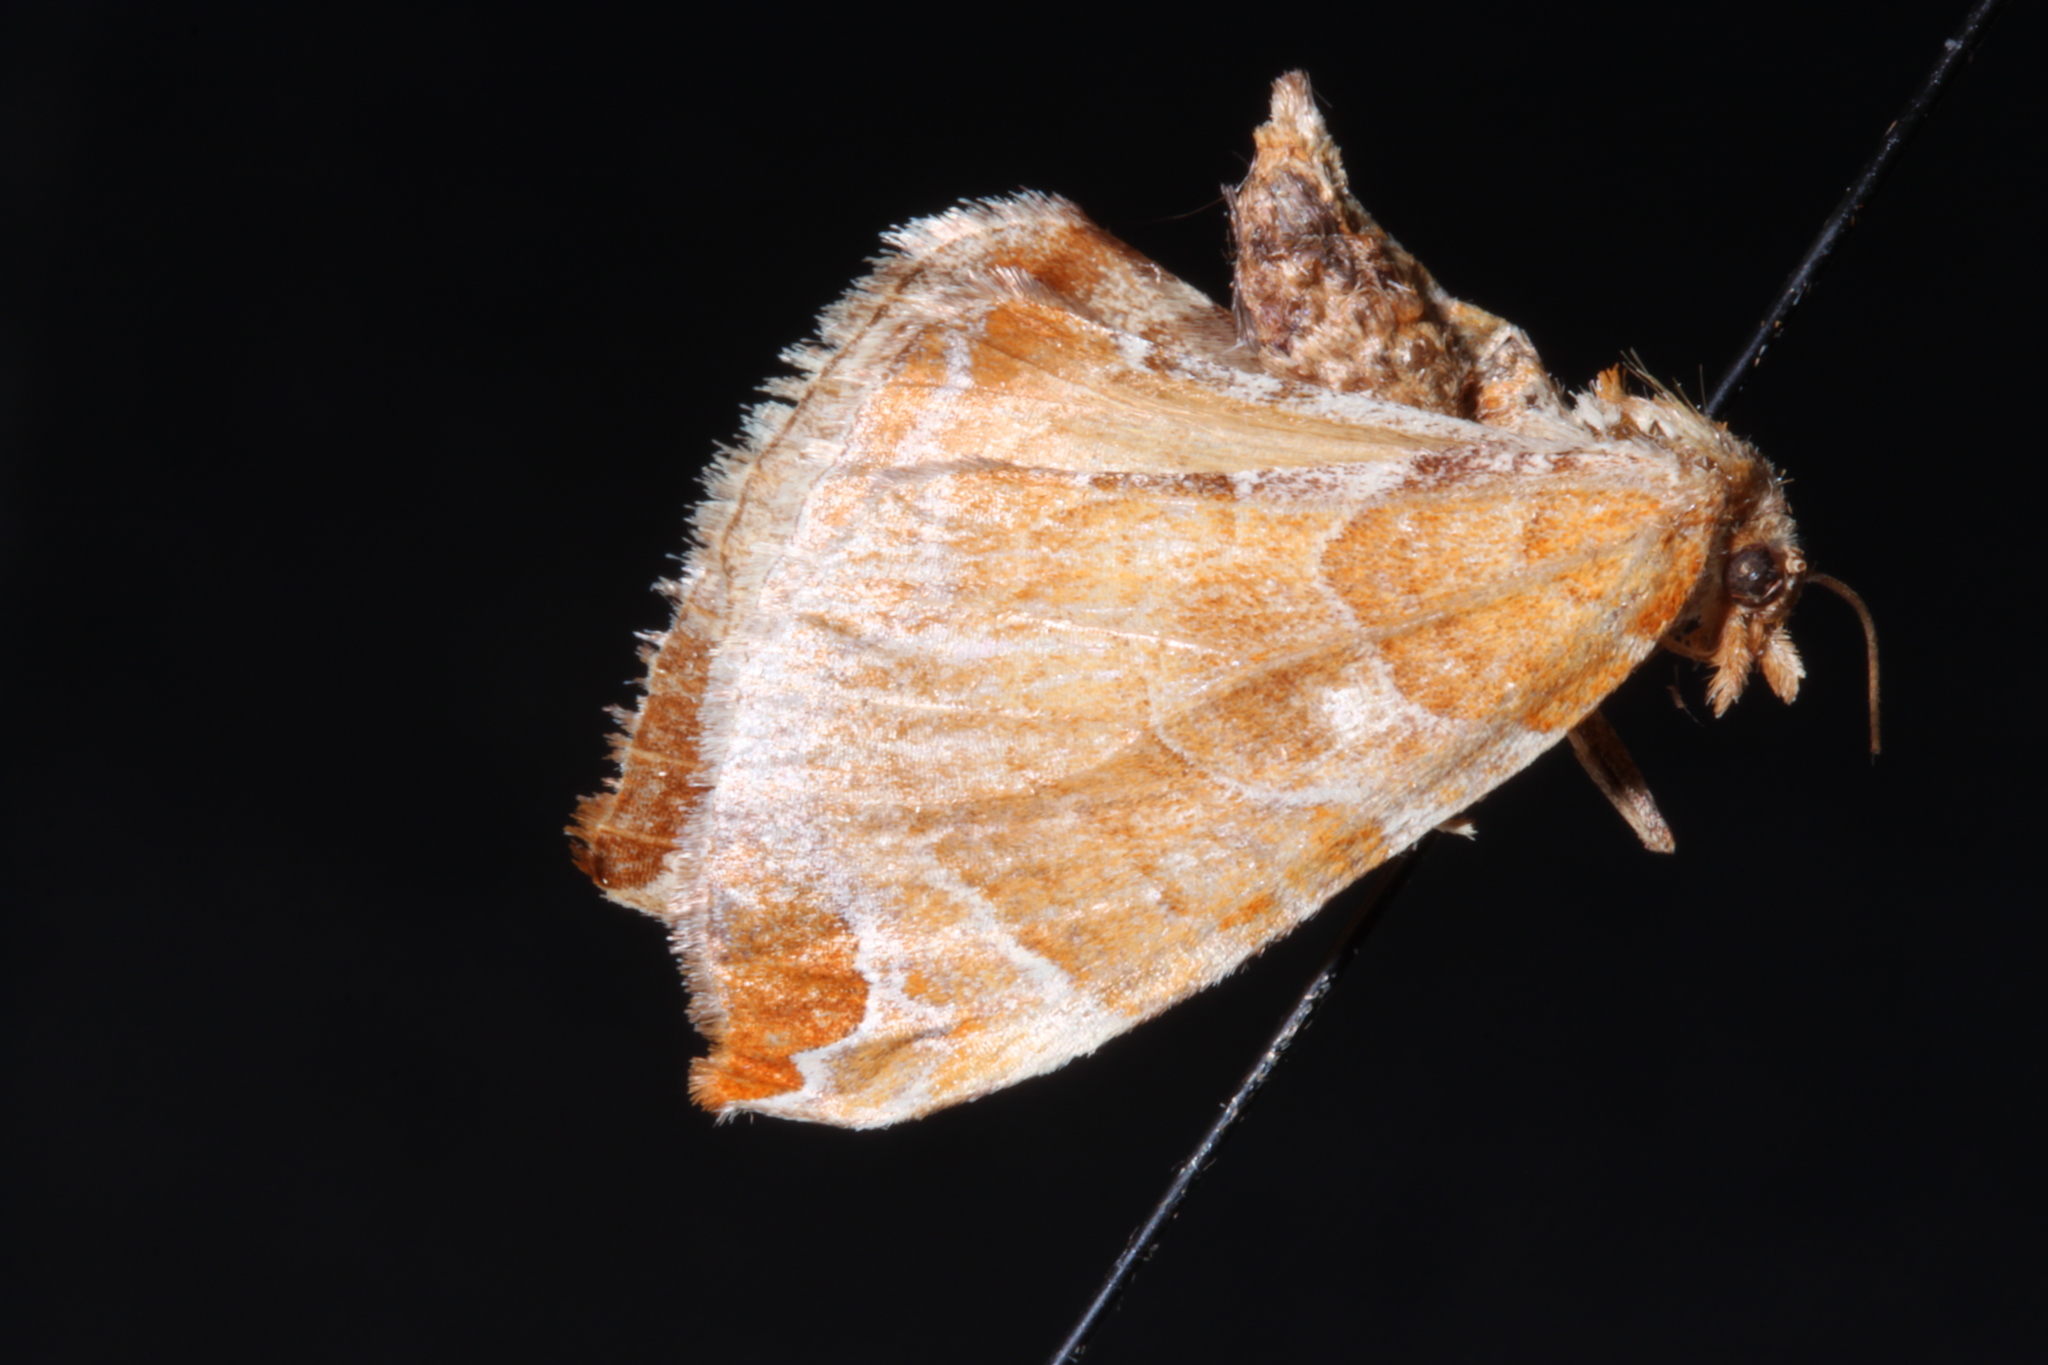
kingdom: Animalia
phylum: Arthropoda
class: Insecta
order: Lepidoptera
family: Geometridae
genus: Eulithis
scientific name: Eulithis molliculata
